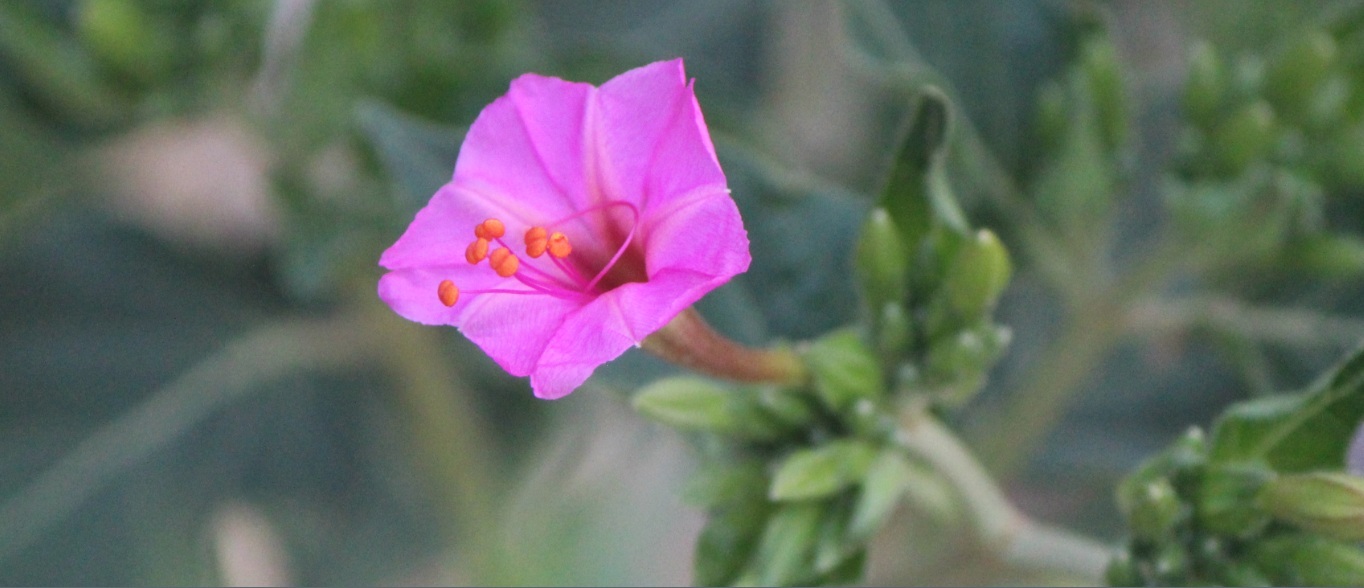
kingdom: Plantae
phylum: Tracheophyta
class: Magnoliopsida
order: Caryophyllales
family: Nyctaginaceae
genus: Mirabilis
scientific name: Mirabilis jalapa
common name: Marvel-of-peru
